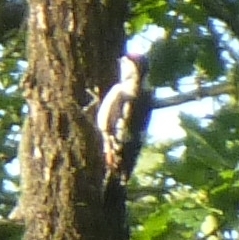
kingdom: Animalia
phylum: Chordata
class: Aves
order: Piciformes
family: Picidae
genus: Dendrocopos
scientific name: Dendrocopos major
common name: Great spotted woodpecker
